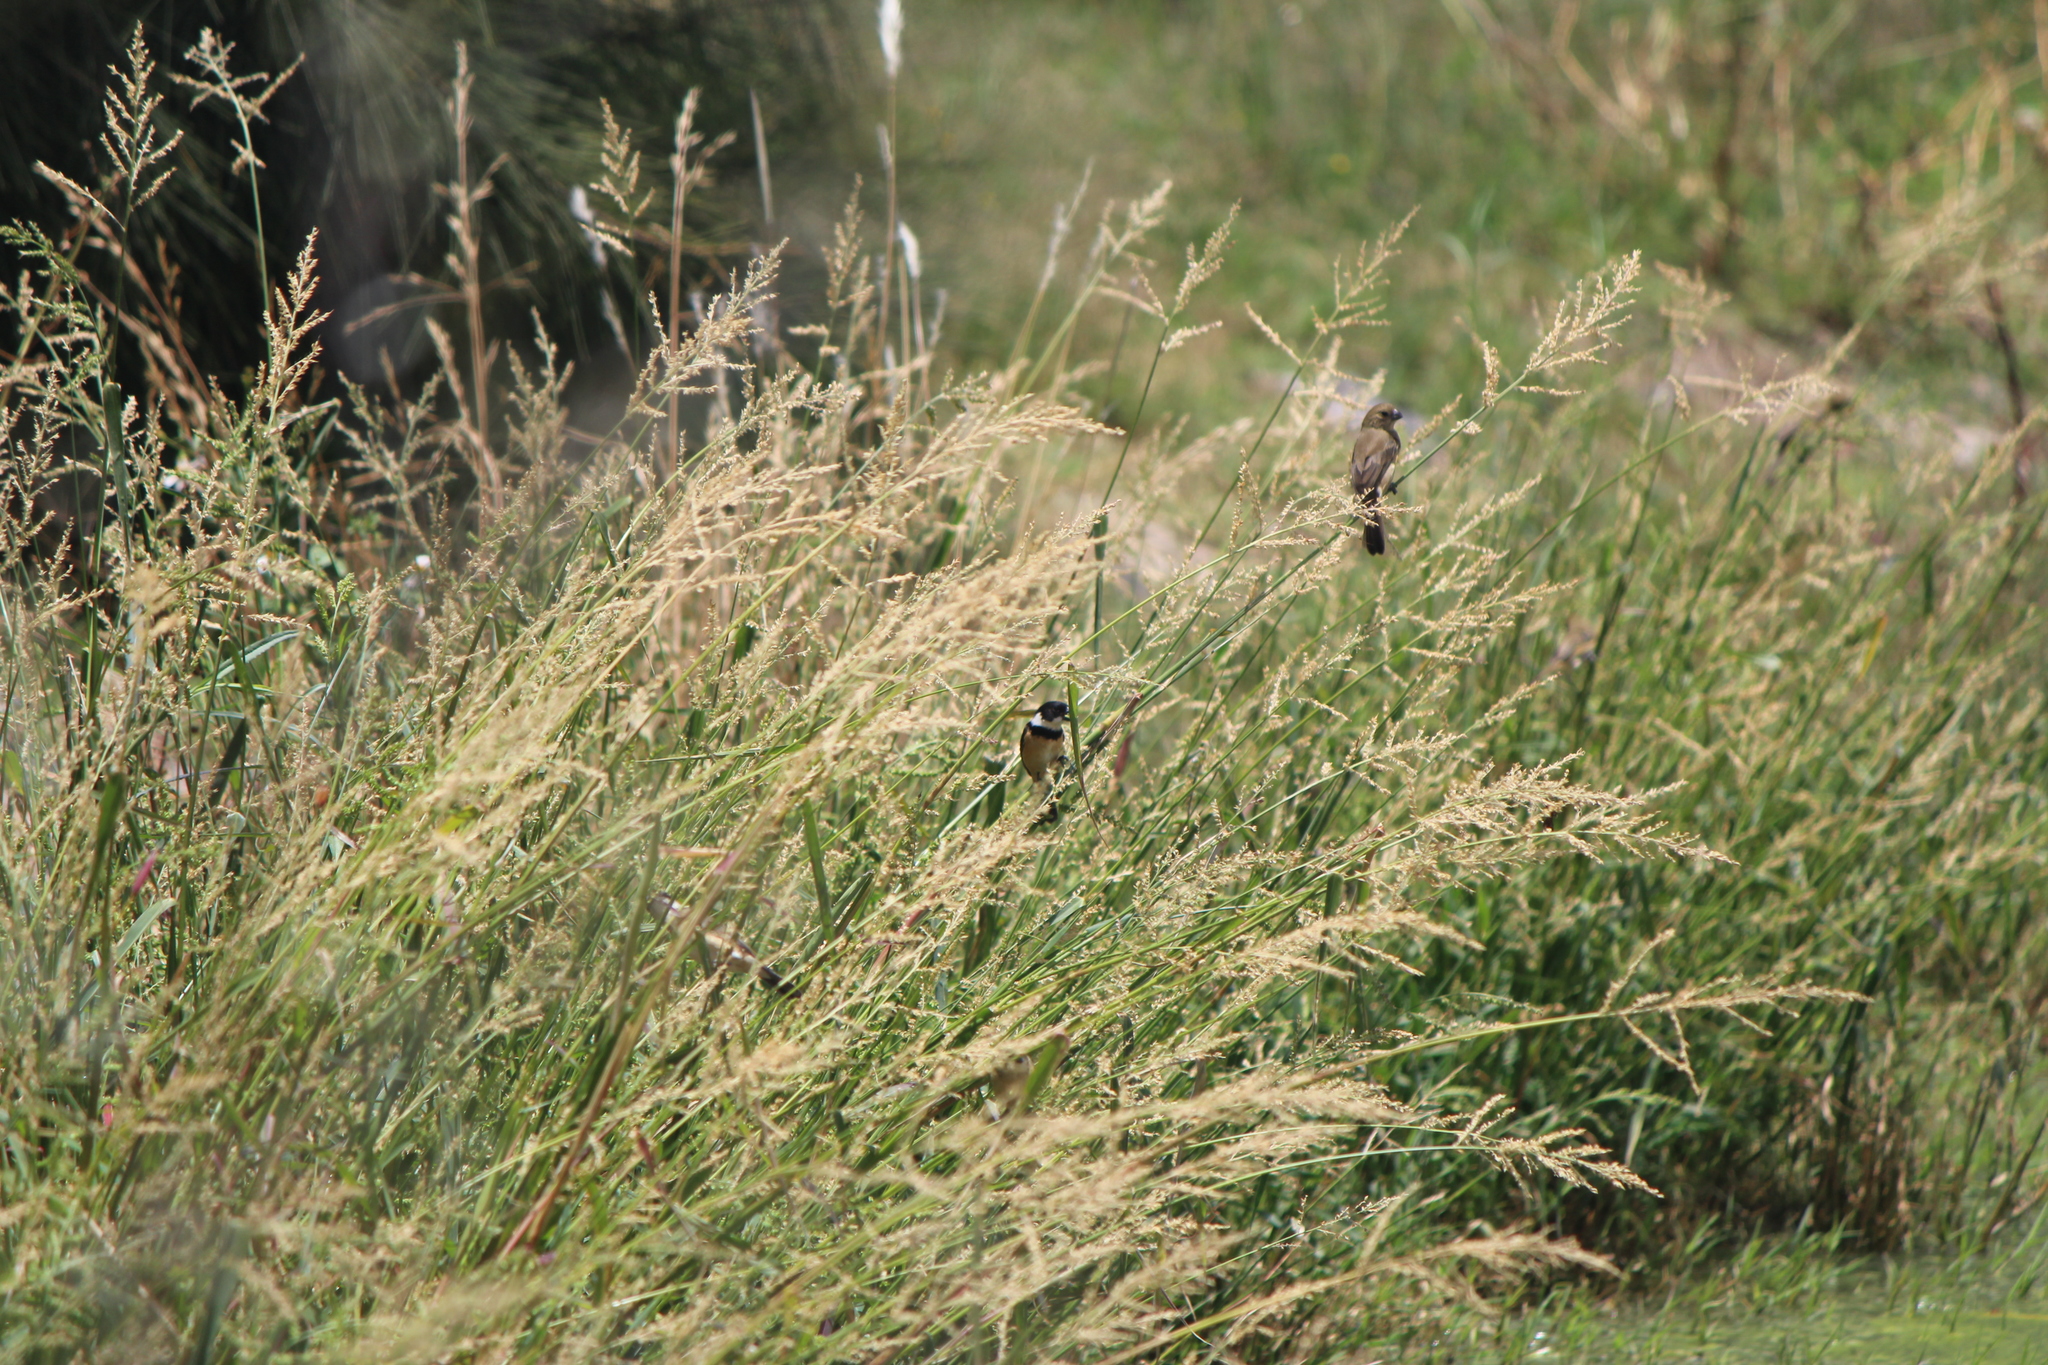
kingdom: Animalia
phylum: Chordata
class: Aves
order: Passeriformes
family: Thraupidae
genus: Sporophila
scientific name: Sporophila torqueola
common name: White-collared seedeater
